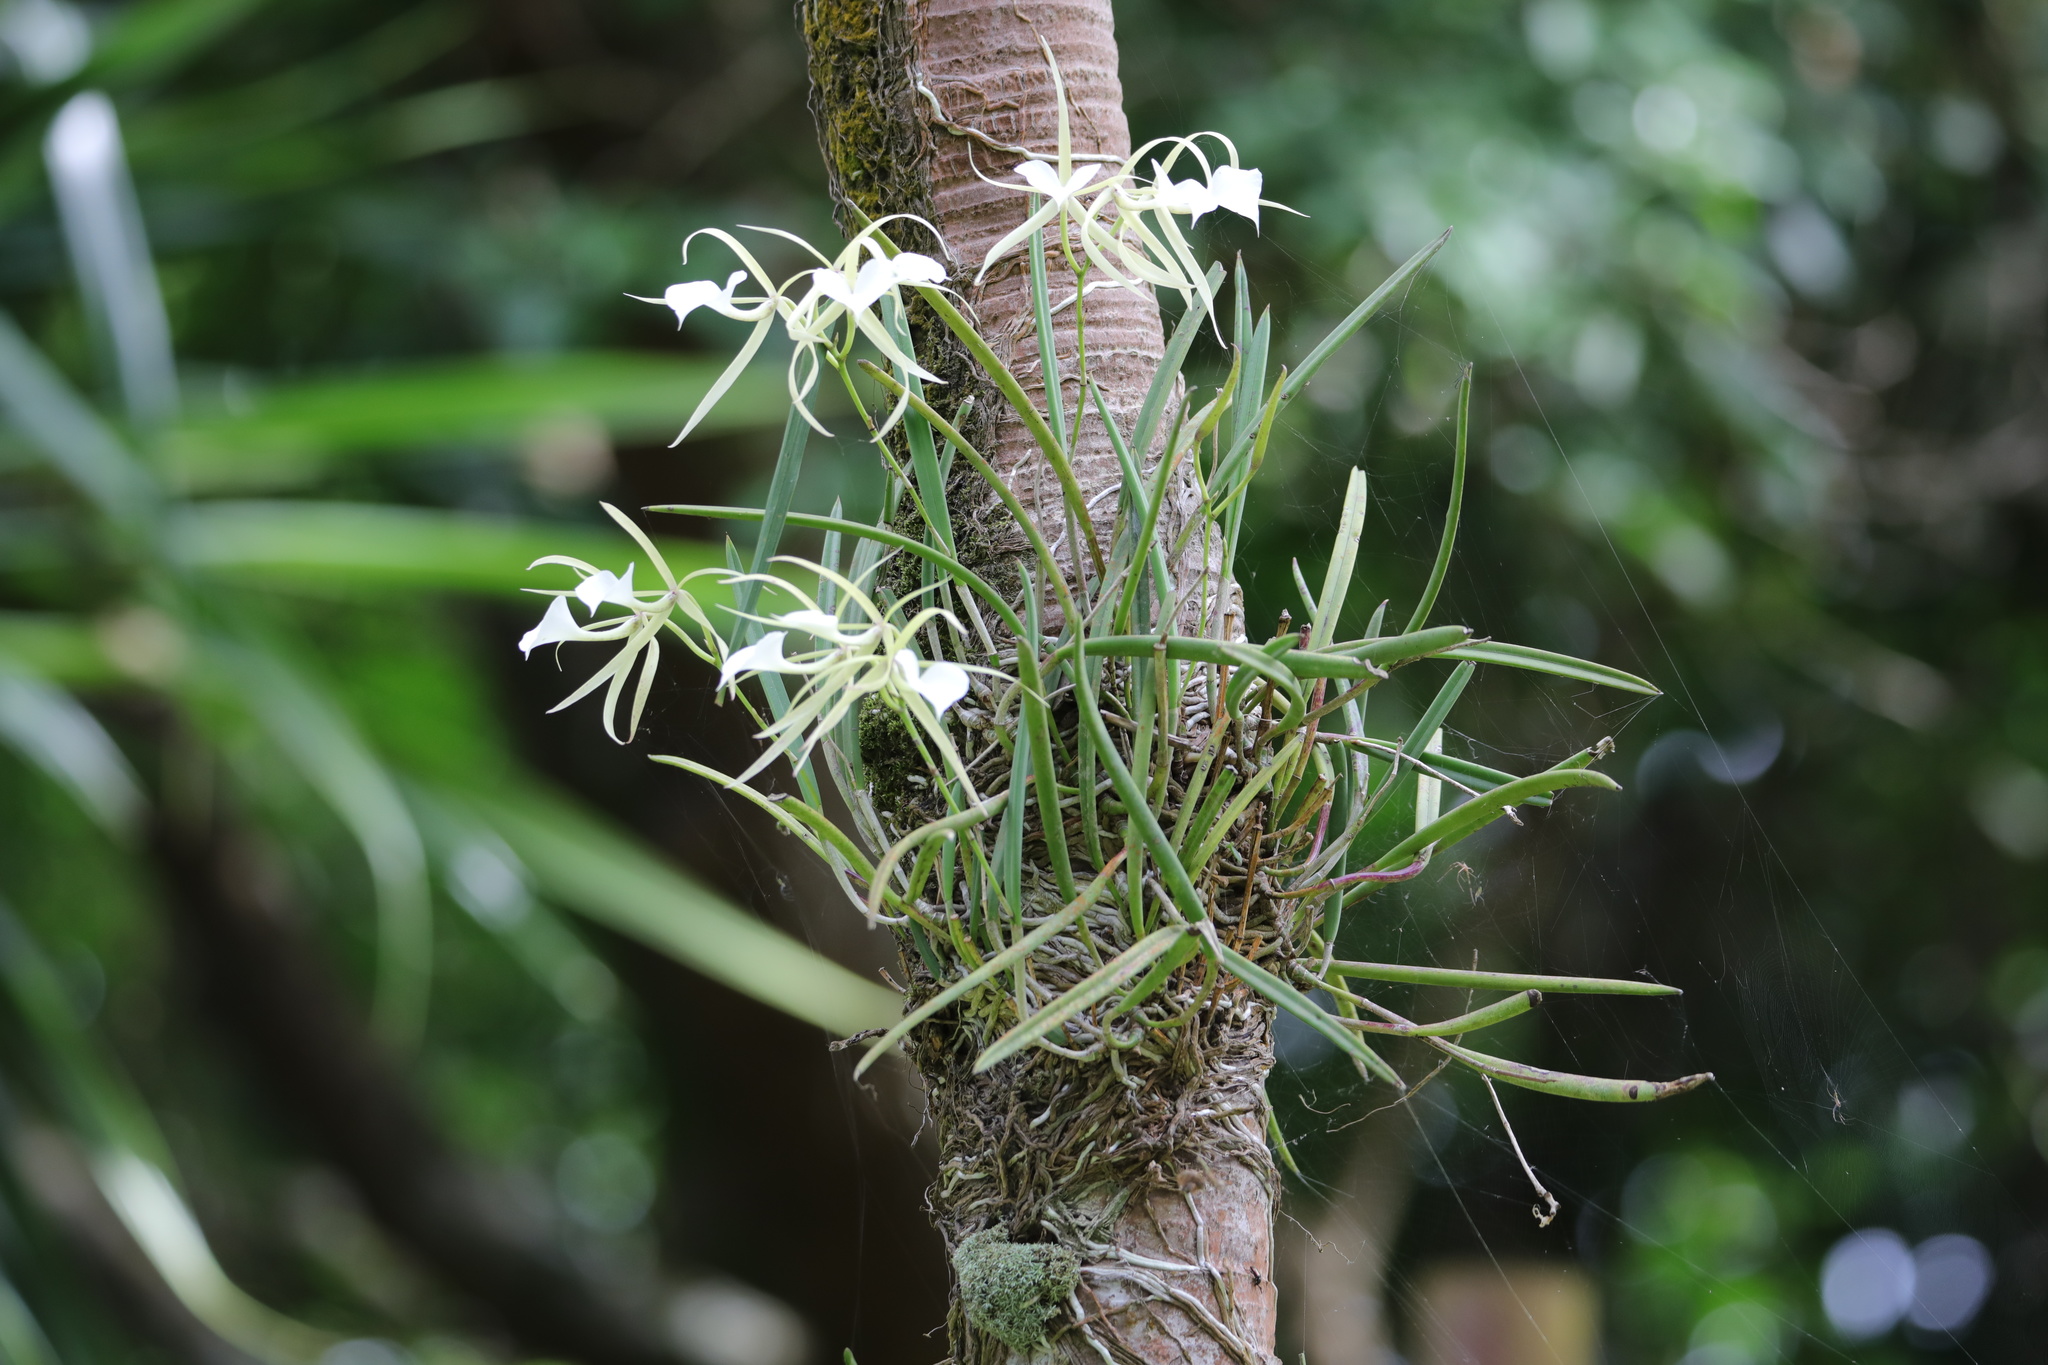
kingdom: Plantae
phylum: Tracheophyta
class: Liliopsida
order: Asparagales
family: Orchidaceae
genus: Brassavola
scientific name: Brassavola nodosa
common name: Lady of the night
